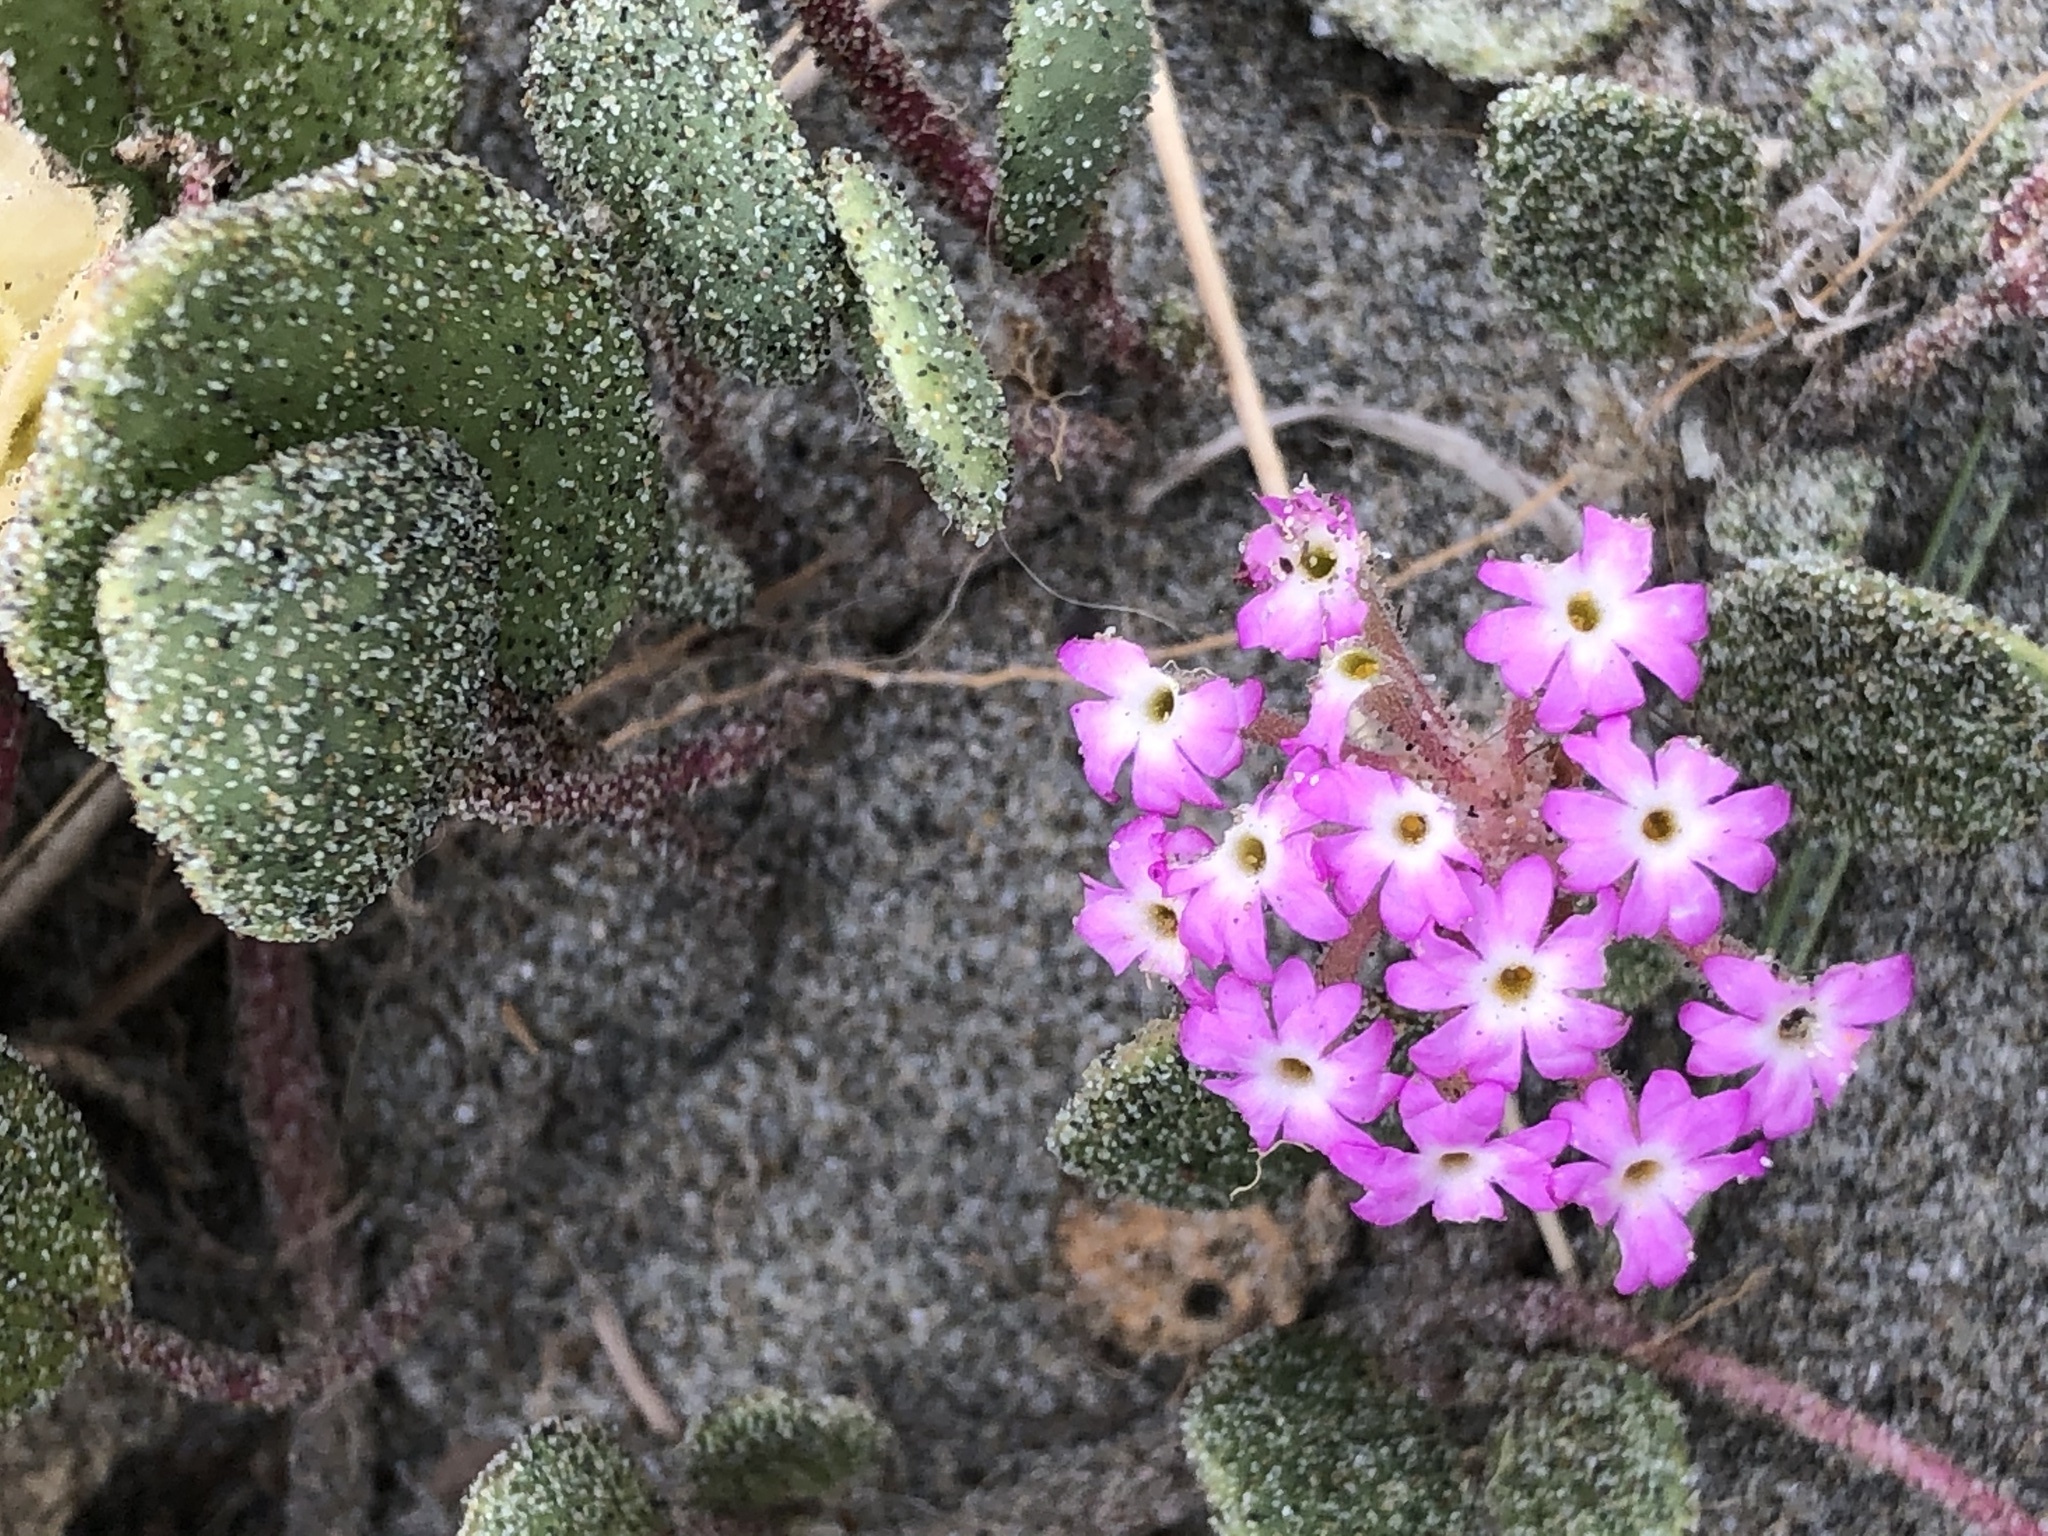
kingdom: Plantae
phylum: Tracheophyta
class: Magnoliopsida
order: Caryophyllales
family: Nyctaginaceae
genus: Abronia
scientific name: Abronia umbellata
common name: Sand-verbena
